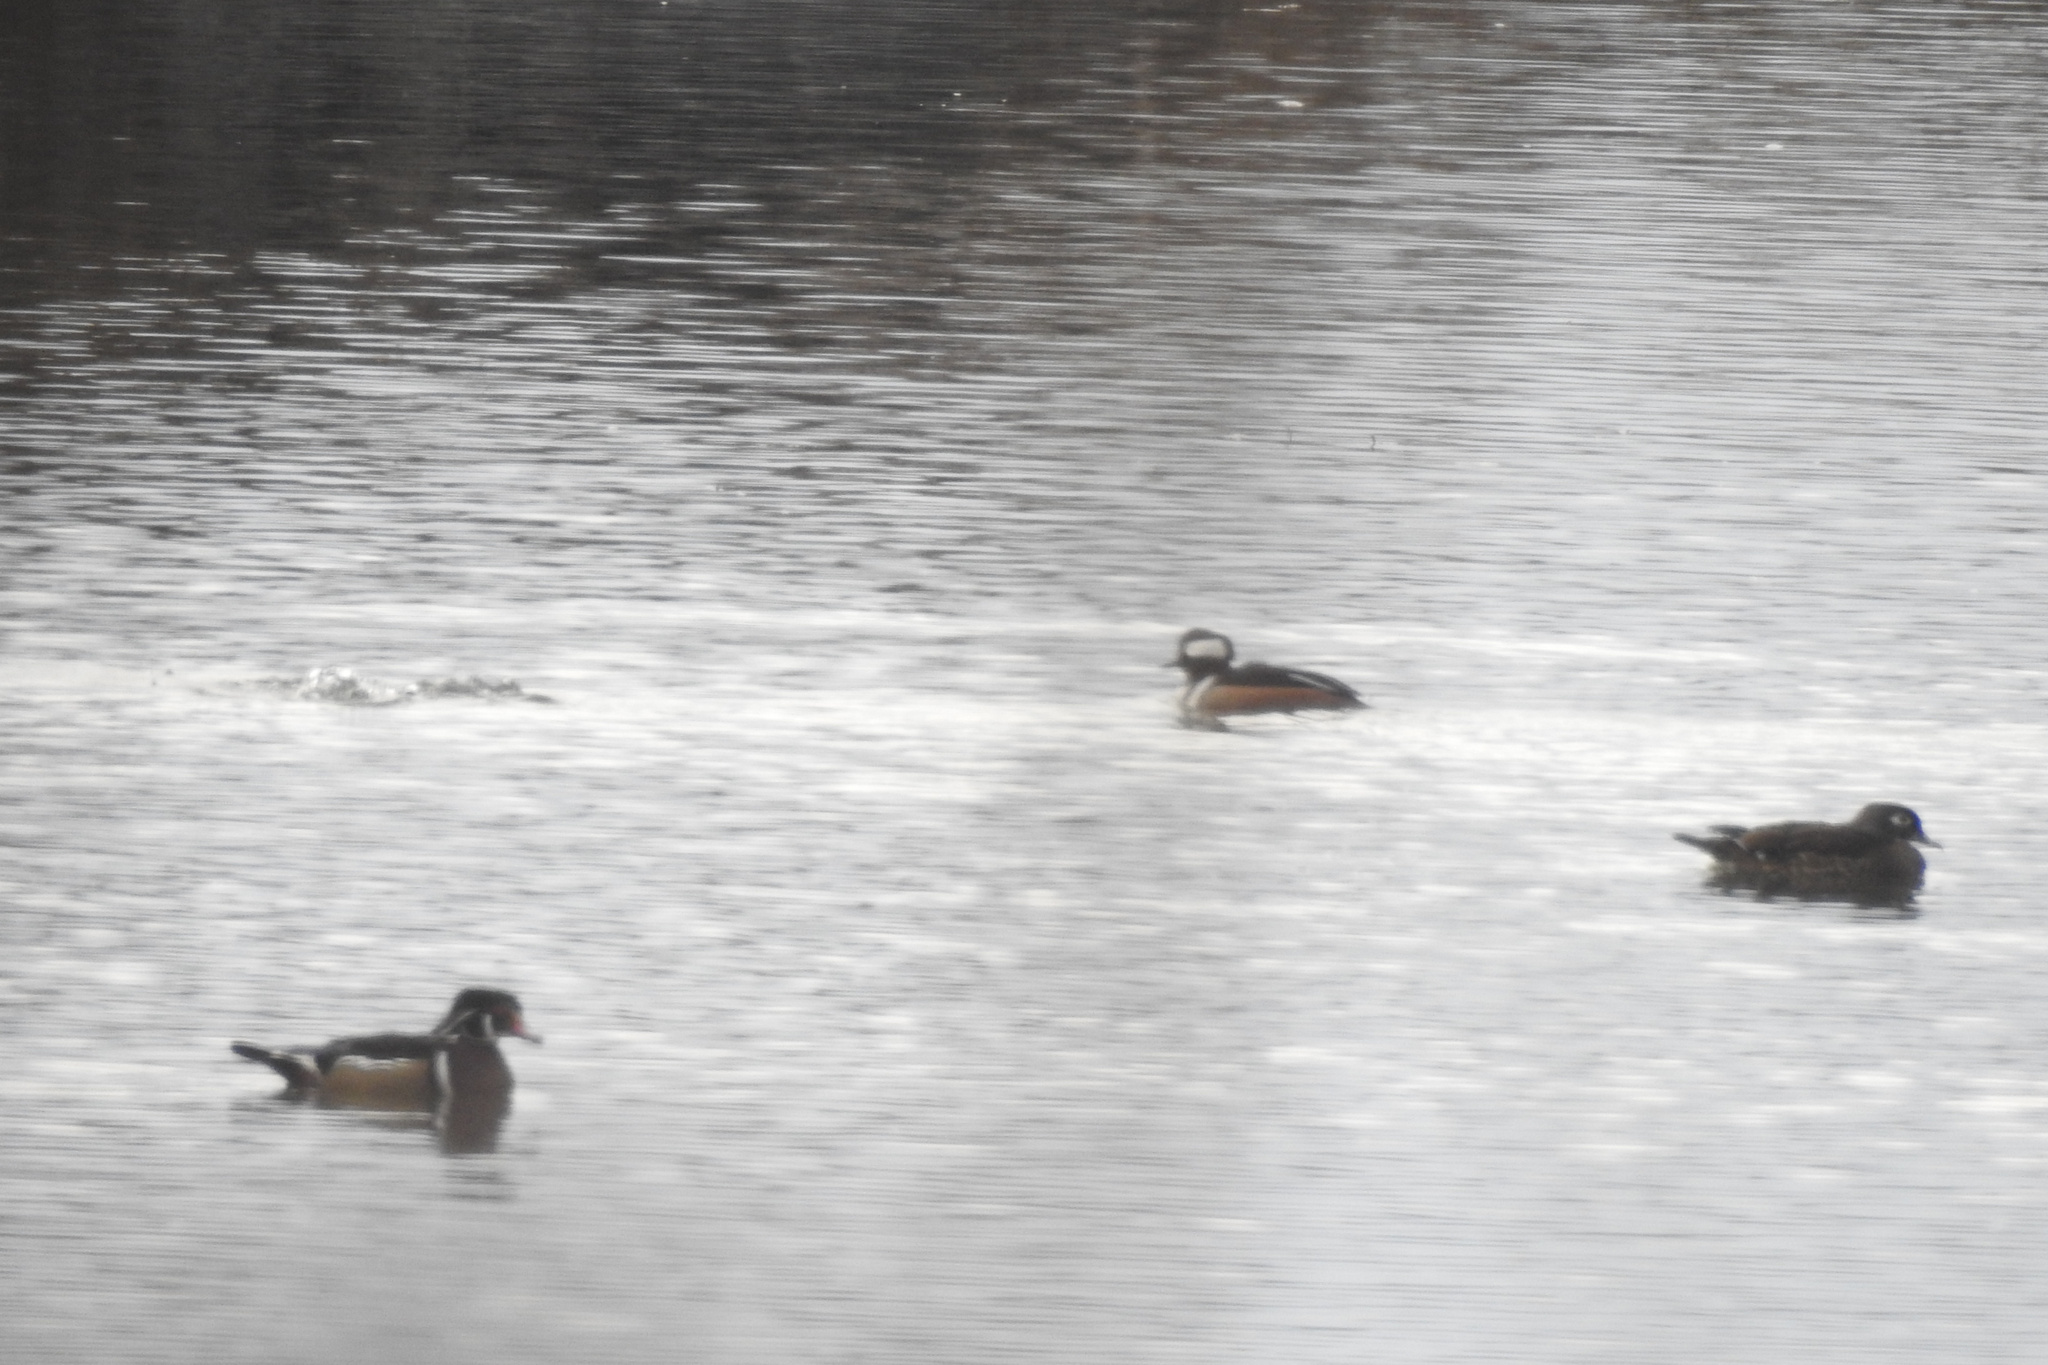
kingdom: Animalia
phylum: Chordata
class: Aves
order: Anseriformes
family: Anatidae
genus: Lophodytes
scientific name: Lophodytes cucullatus
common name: Hooded merganser
